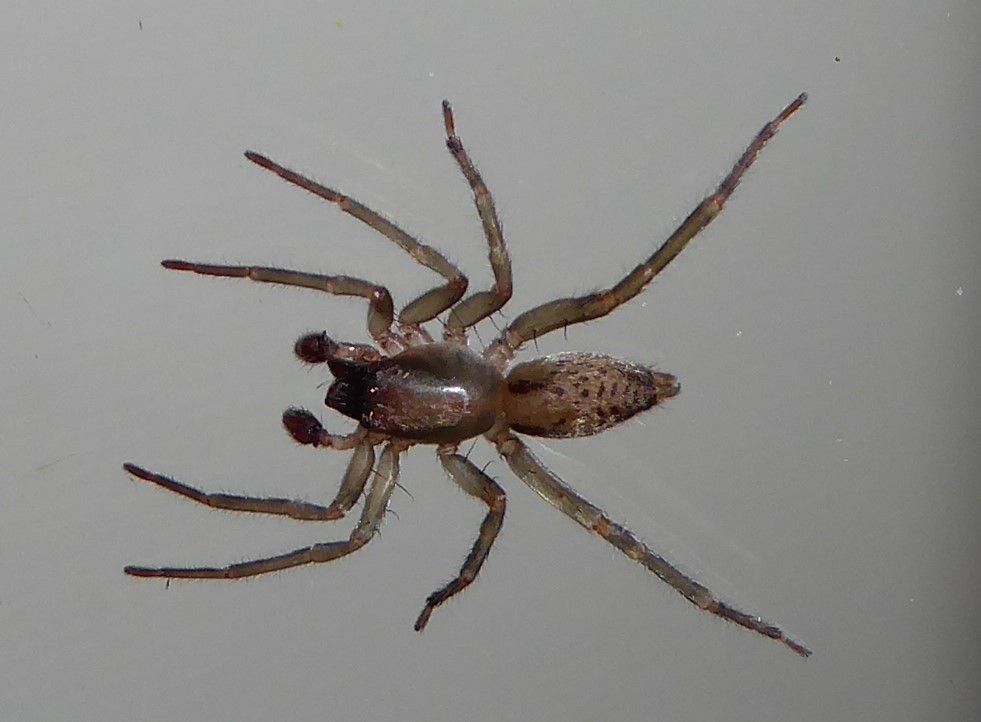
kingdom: Animalia
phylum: Arthropoda
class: Arachnida
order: Araneae
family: Clubionidae
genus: Clubiona
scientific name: Clubiona peculiaris
